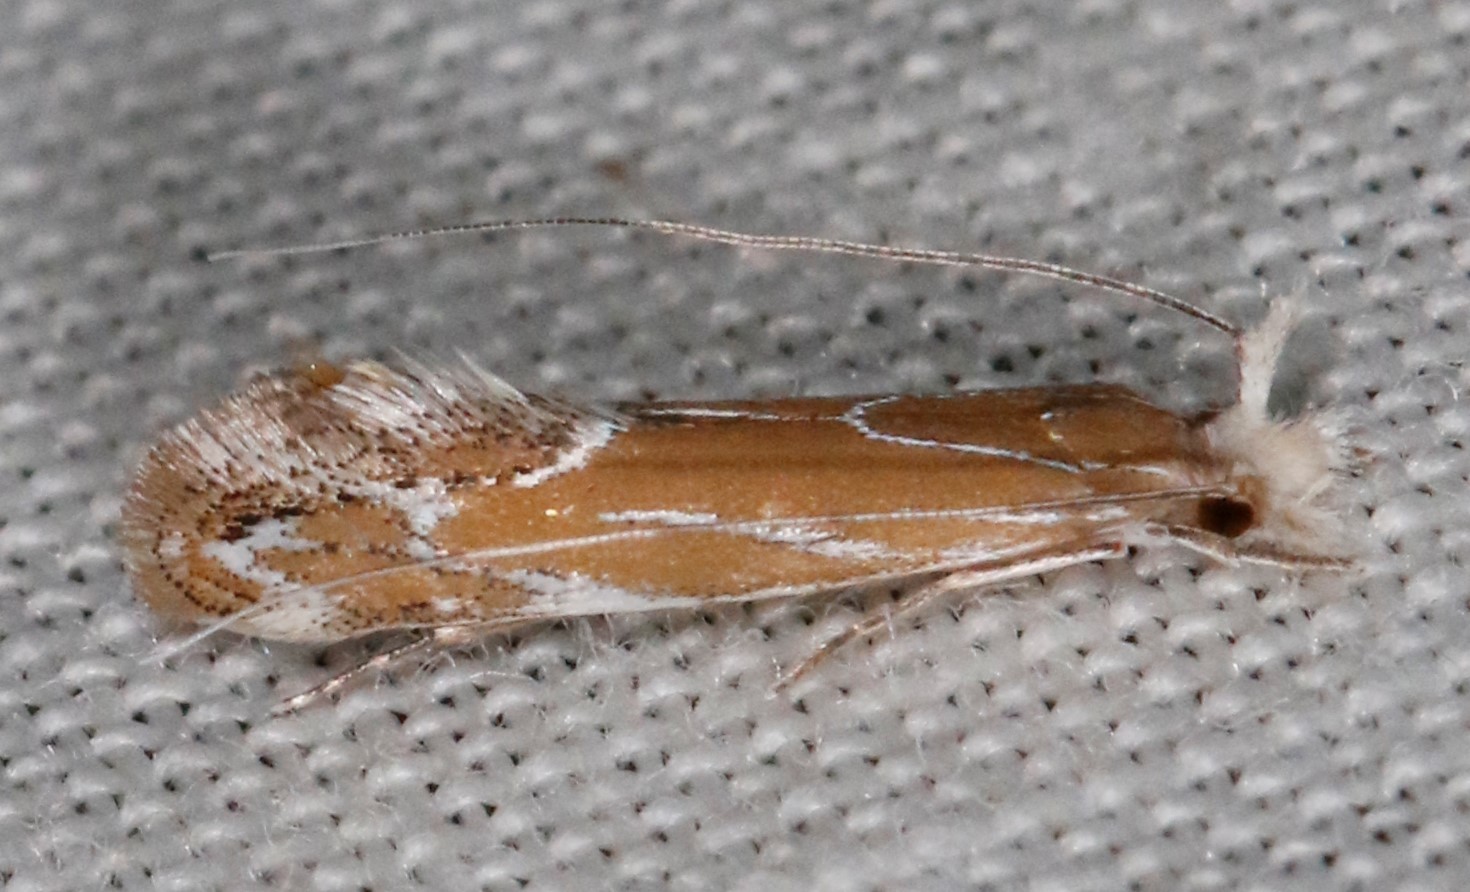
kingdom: Animalia
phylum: Arthropoda
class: Insecta
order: Lepidoptera
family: Tineidae
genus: Euprora
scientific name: Euprora argentilineella
